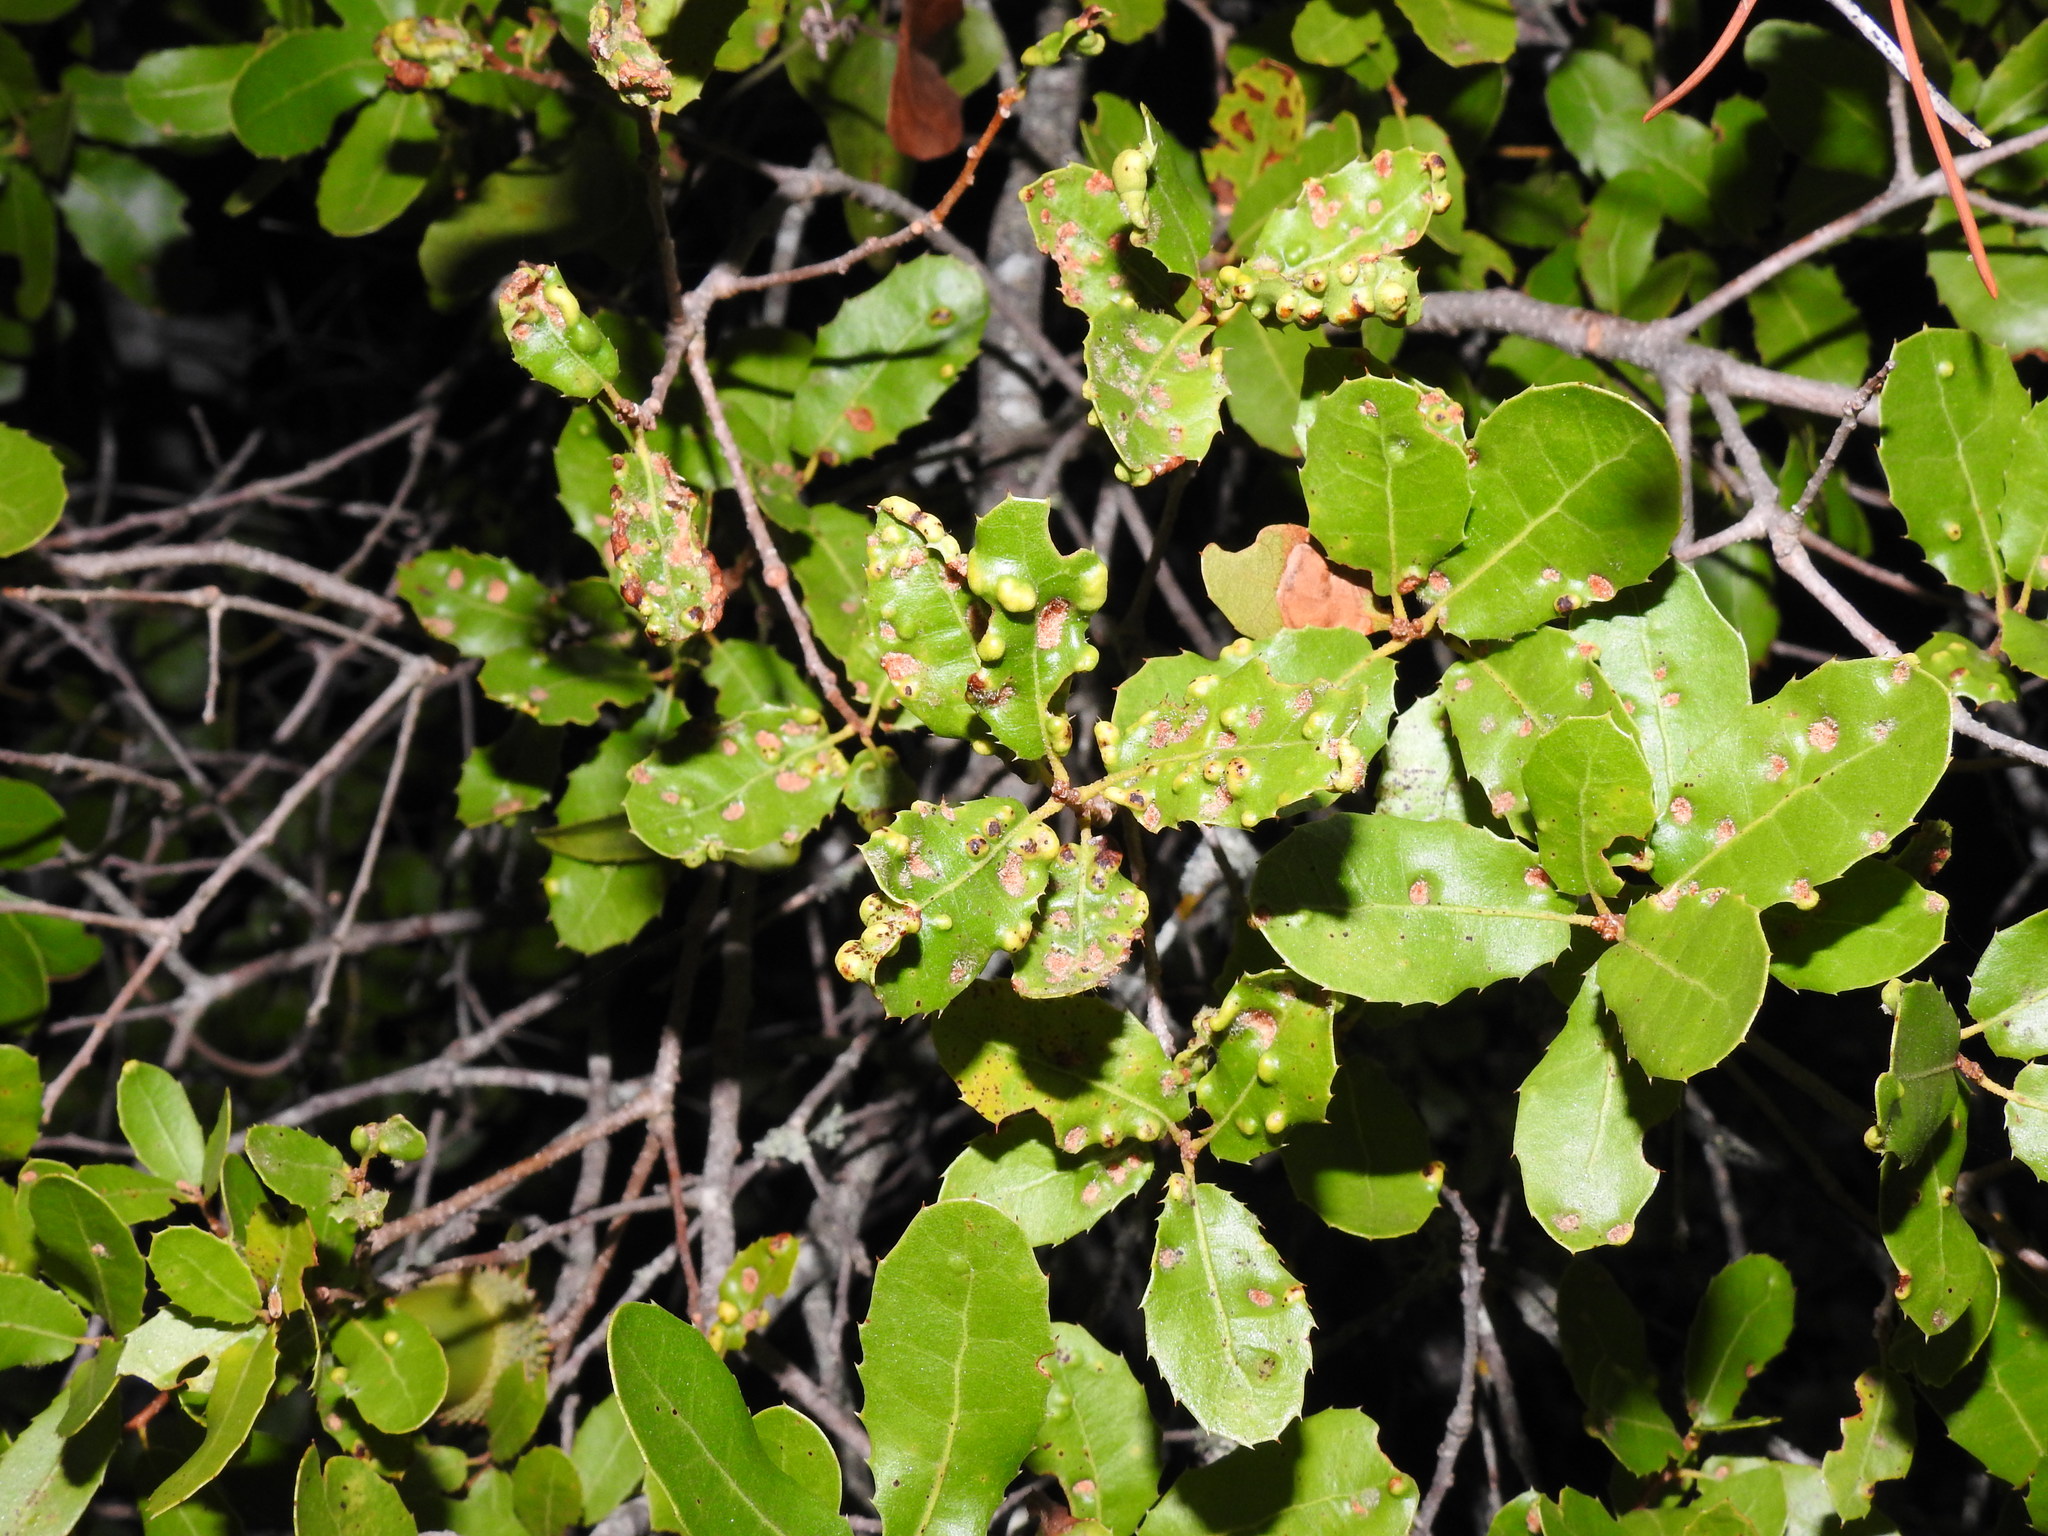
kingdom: Animalia
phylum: Arthropoda
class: Arachnida
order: Trombidiformes
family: Eriophyidae
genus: Aceria
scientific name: Aceria ilicis
